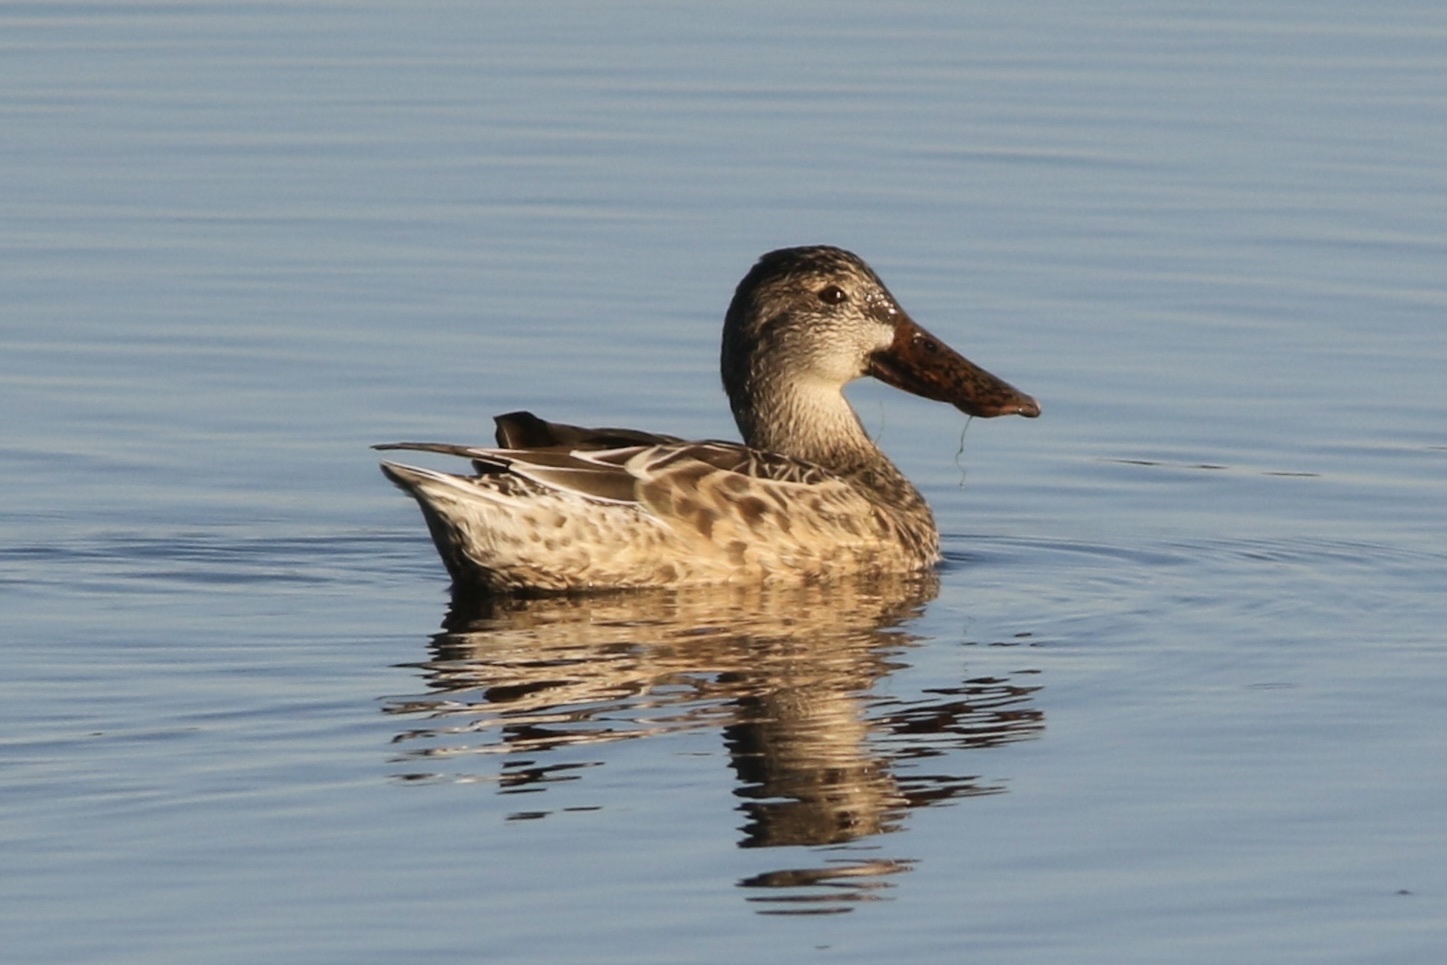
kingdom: Animalia
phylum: Chordata
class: Aves
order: Anseriformes
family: Anatidae
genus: Spatula
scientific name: Spatula clypeata
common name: Northern shoveler
